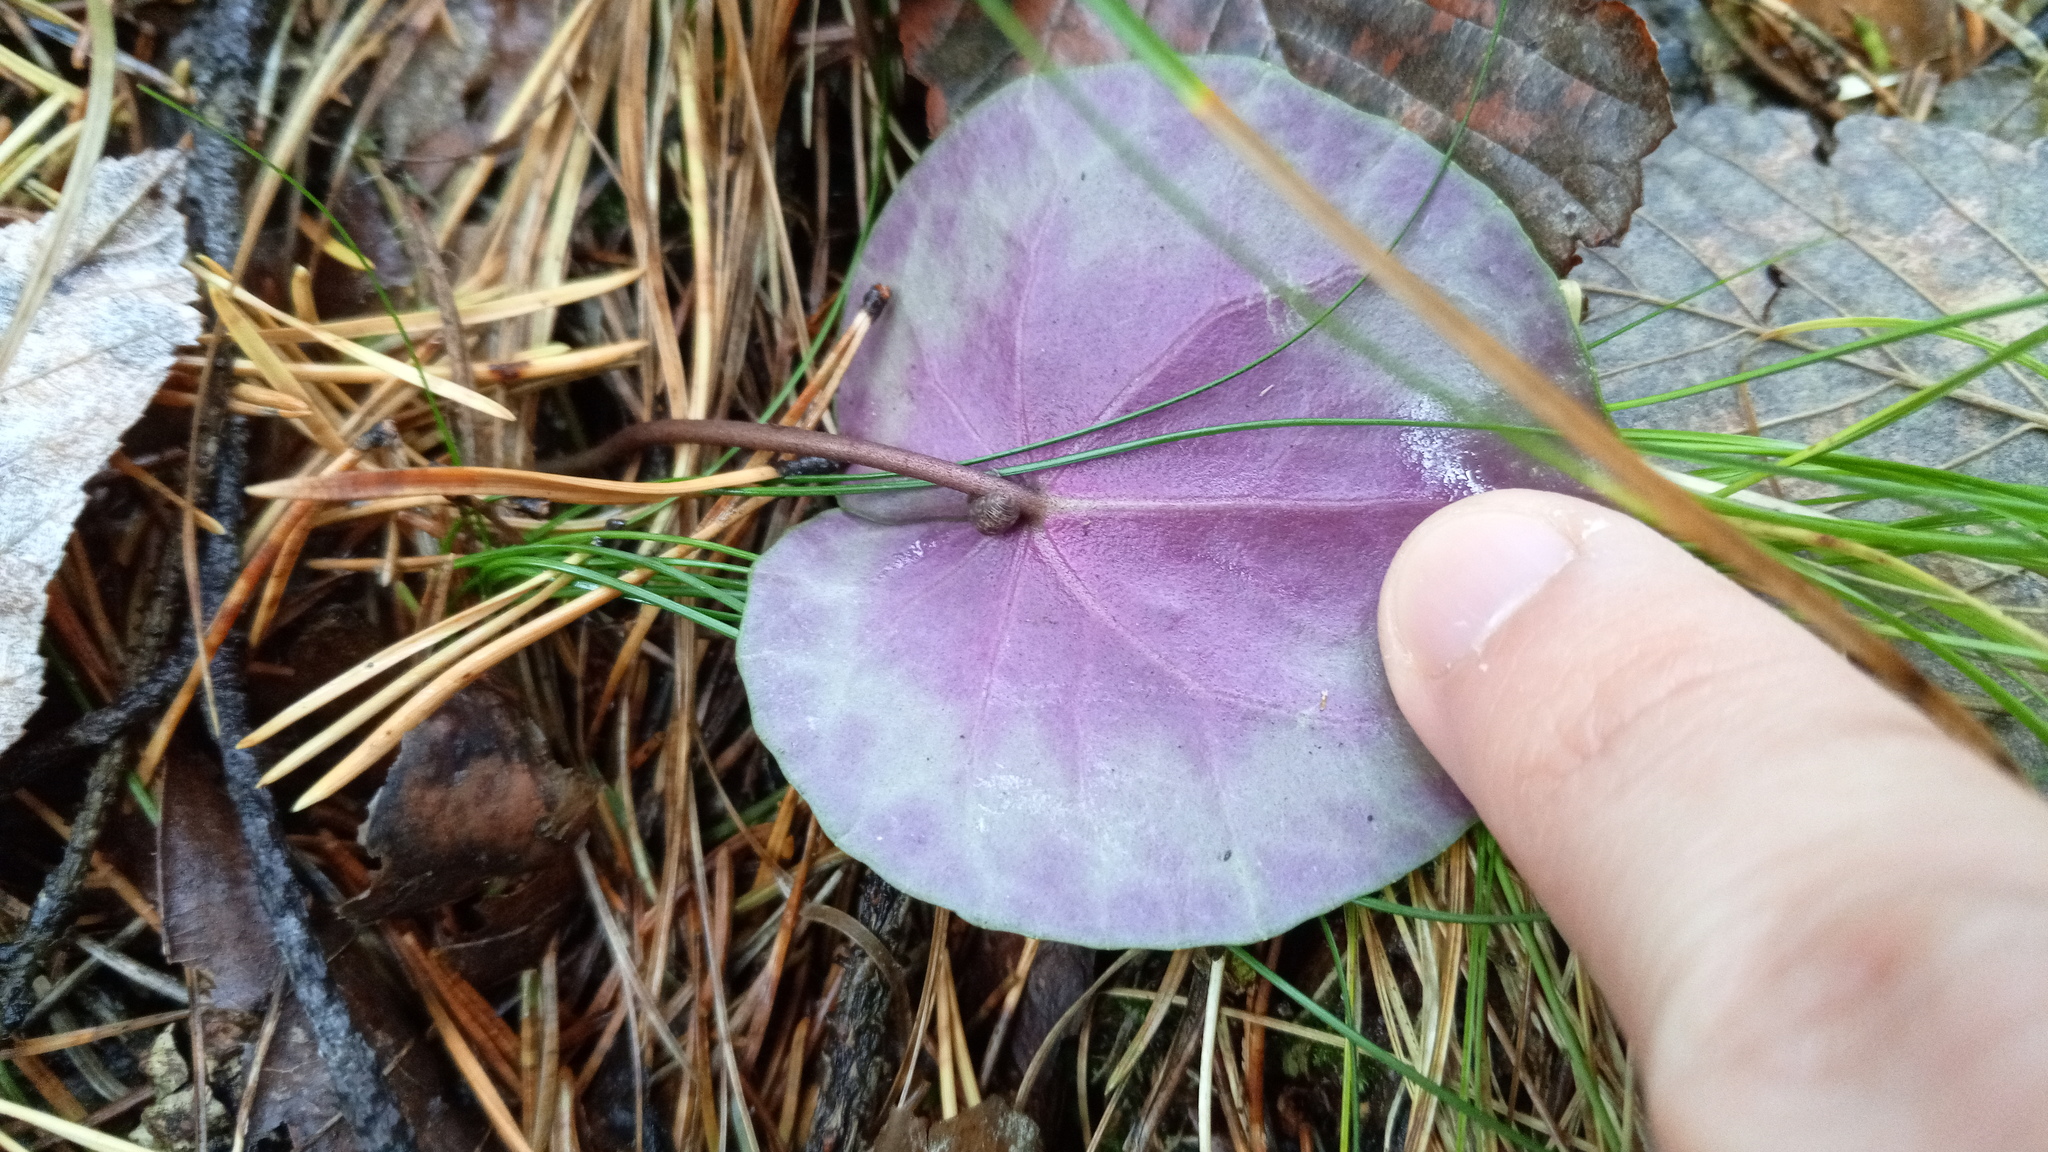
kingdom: Plantae
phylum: Tracheophyta
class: Magnoliopsida
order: Ericales
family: Primulaceae
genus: Cyclamen
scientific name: Cyclamen purpurascens
